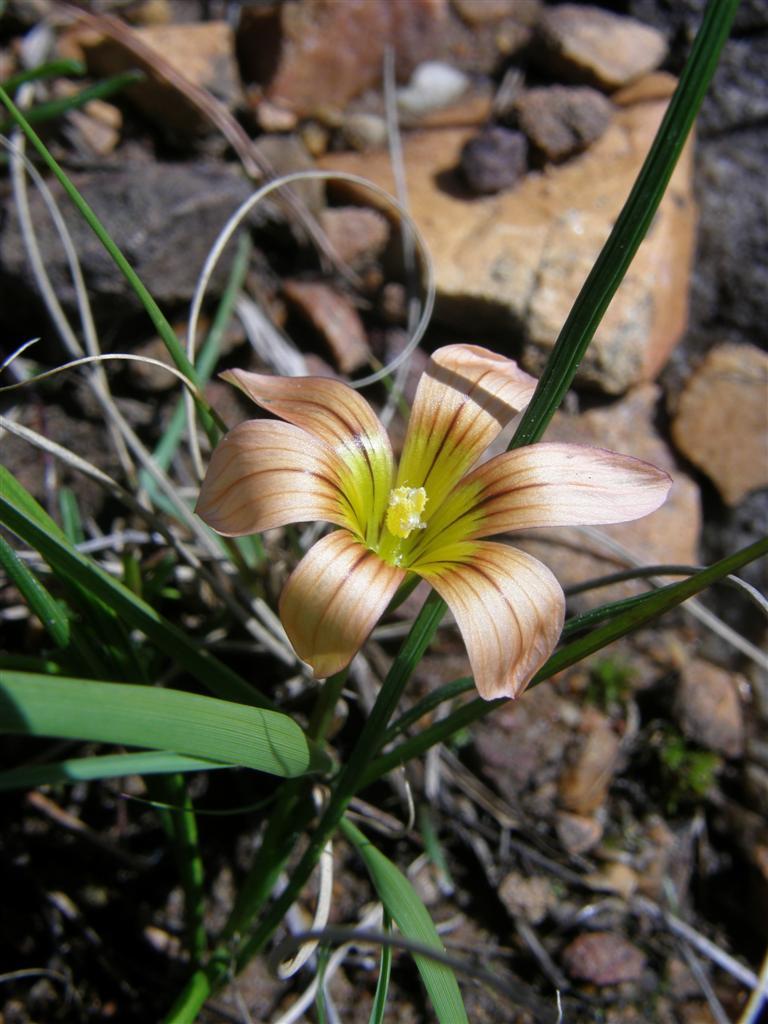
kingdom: Plantae
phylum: Tracheophyta
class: Liliopsida
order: Asparagales
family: Iridaceae
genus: Romulea
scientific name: Romulea hirsuta
